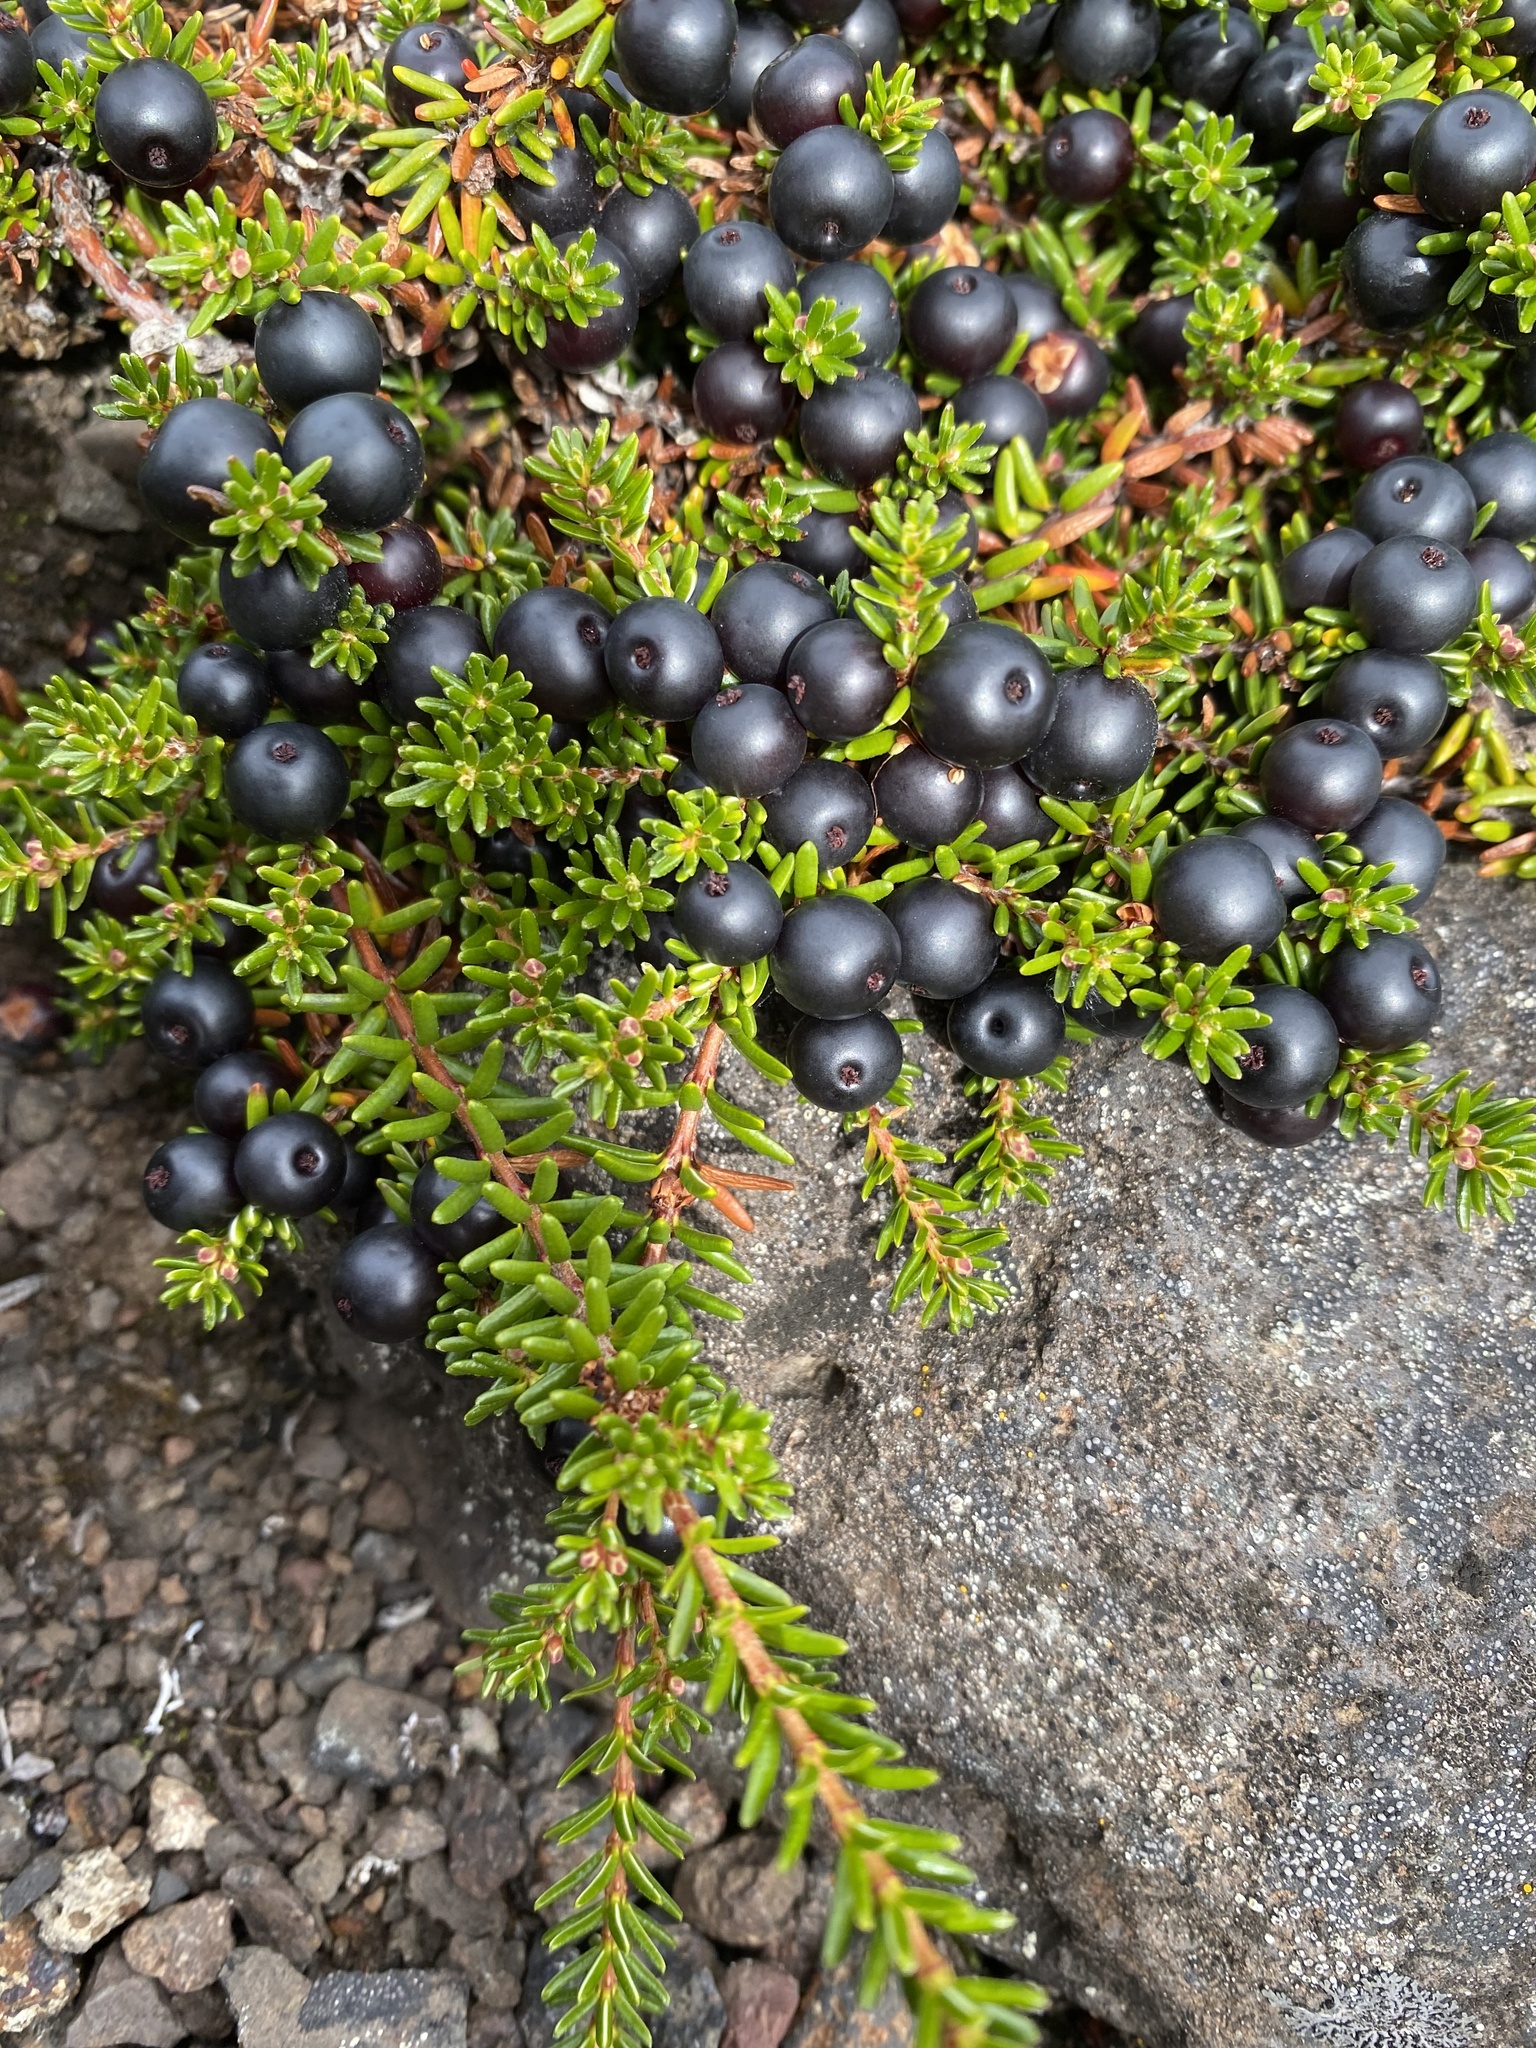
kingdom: Plantae
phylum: Tracheophyta
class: Magnoliopsida
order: Ericales
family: Ericaceae
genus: Empetrum
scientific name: Empetrum nigrum
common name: Black crowberry
